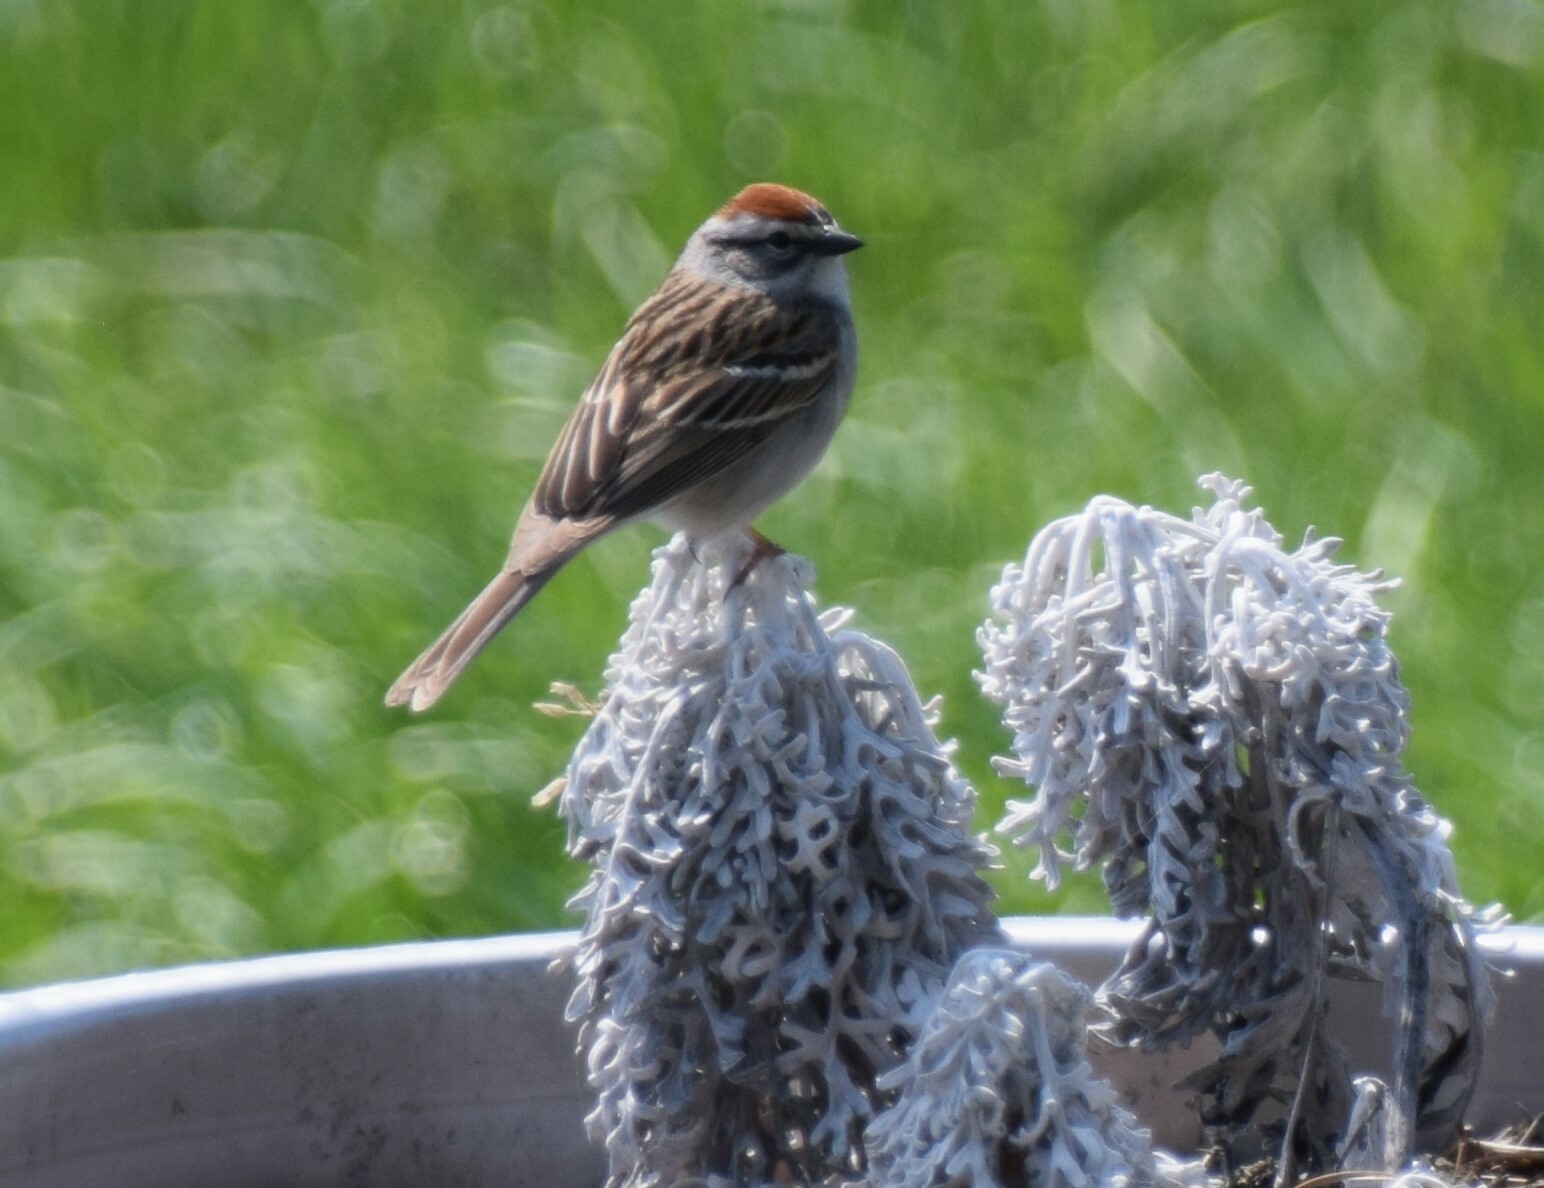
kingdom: Animalia
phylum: Chordata
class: Aves
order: Passeriformes
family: Passerellidae
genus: Spizella
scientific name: Spizella passerina
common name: Chipping sparrow
